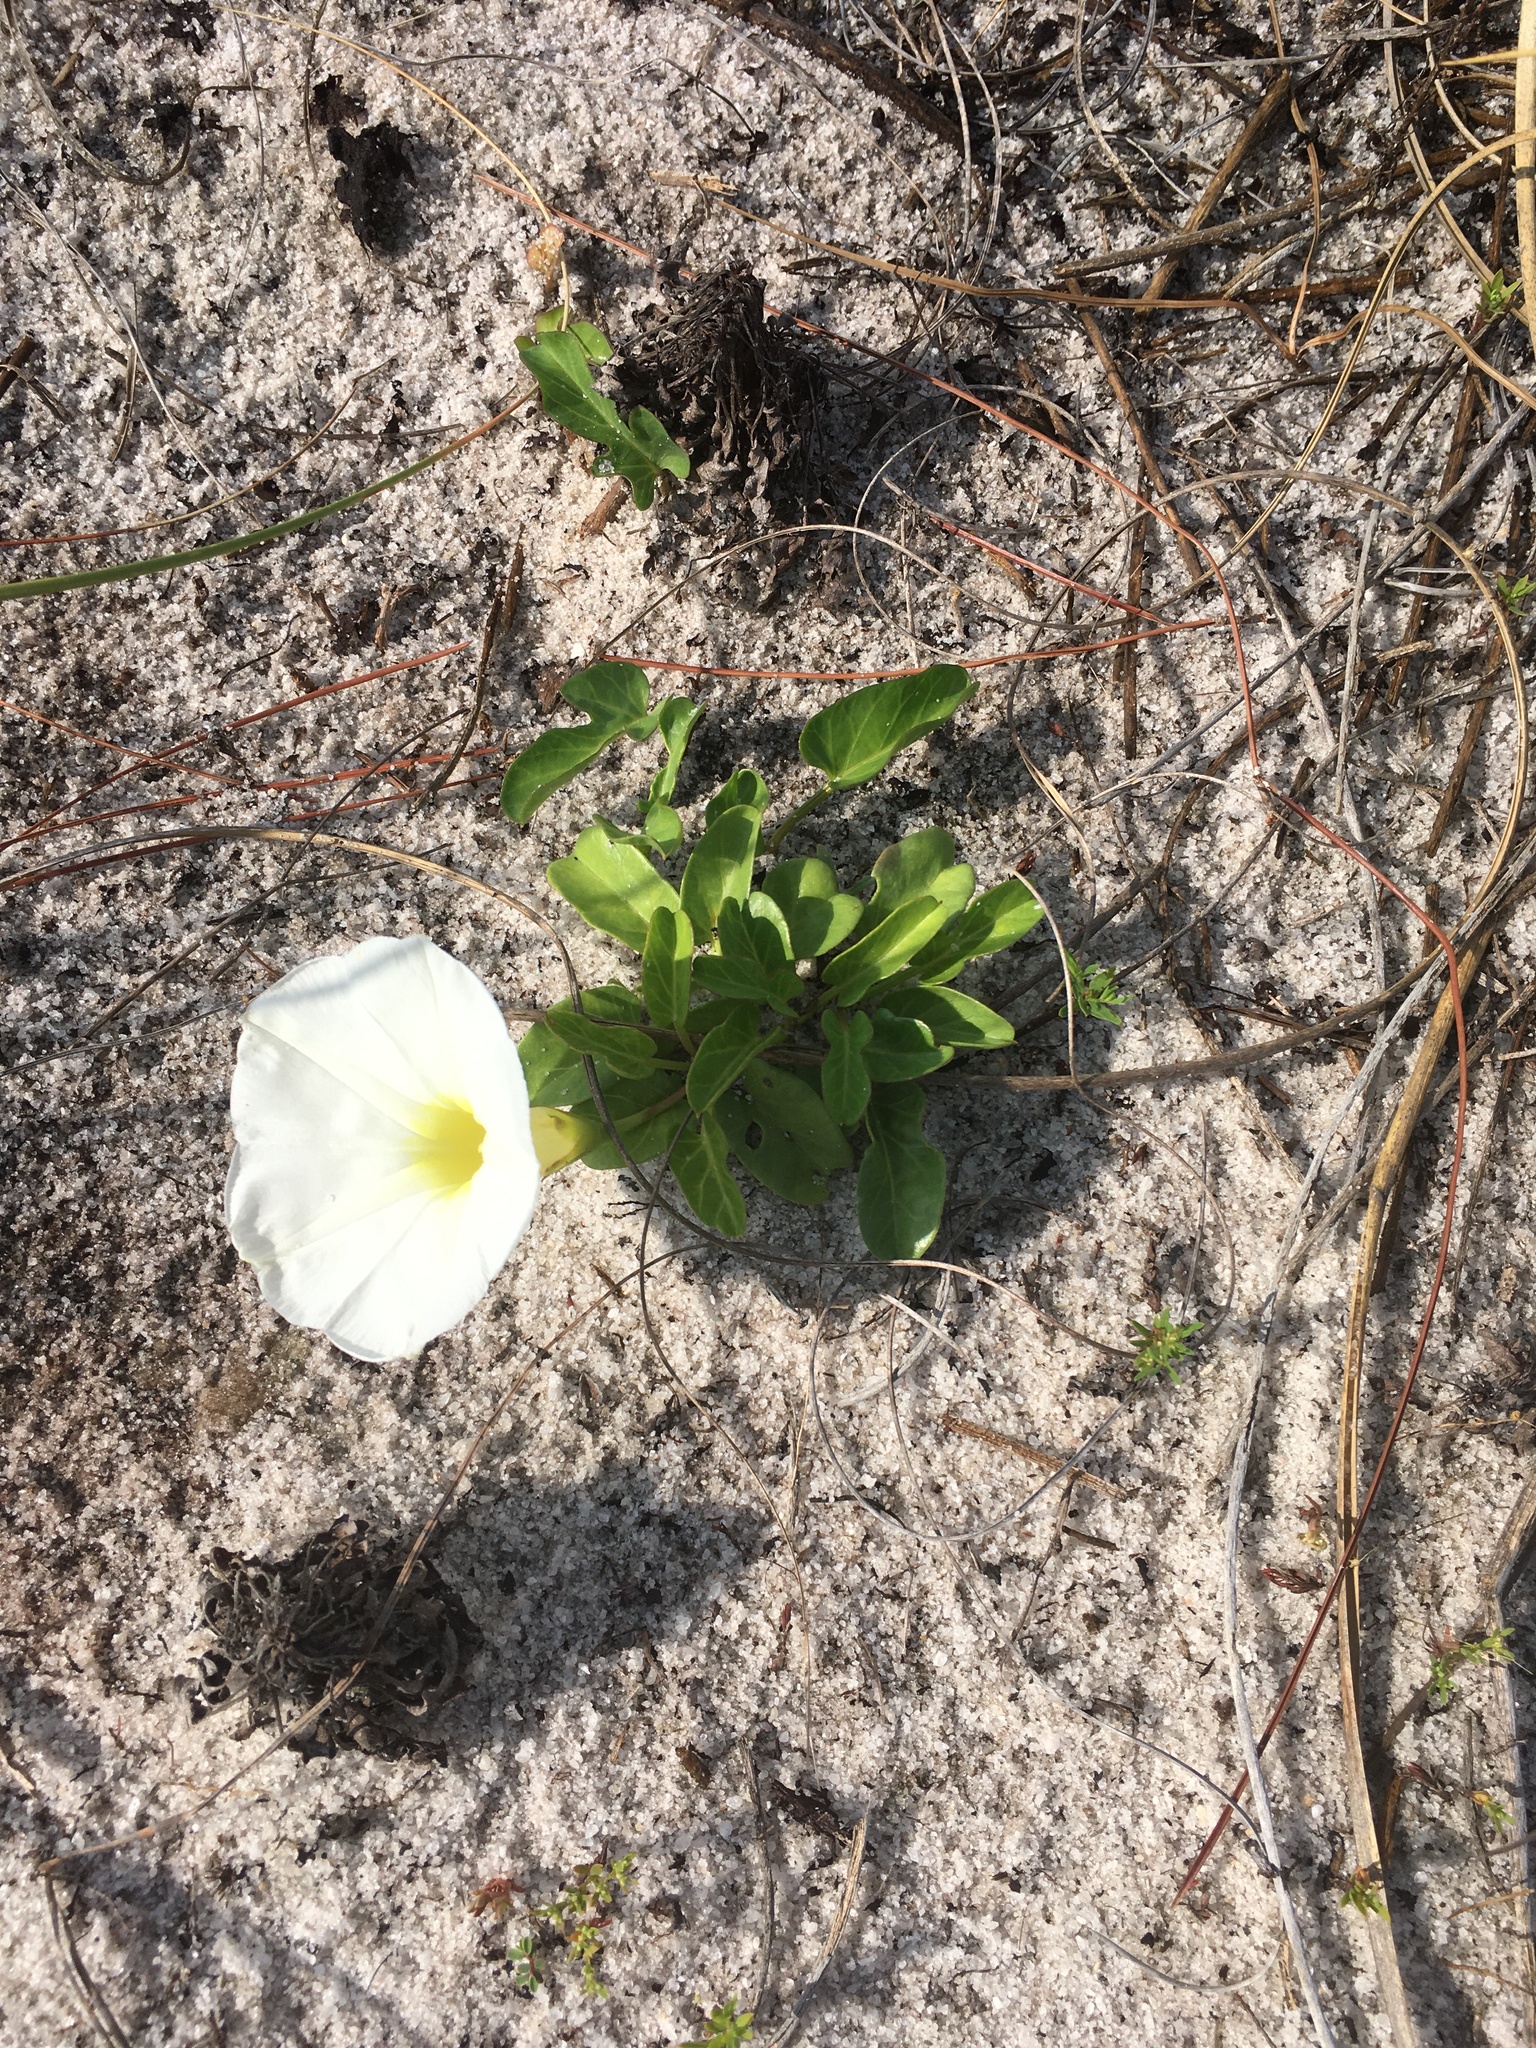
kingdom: Plantae
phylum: Tracheophyta
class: Magnoliopsida
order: Solanales
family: Convolvulaceae
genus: Ipomoea
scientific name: Ipomoea imperati
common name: Fiddle-leaf morning-glory
